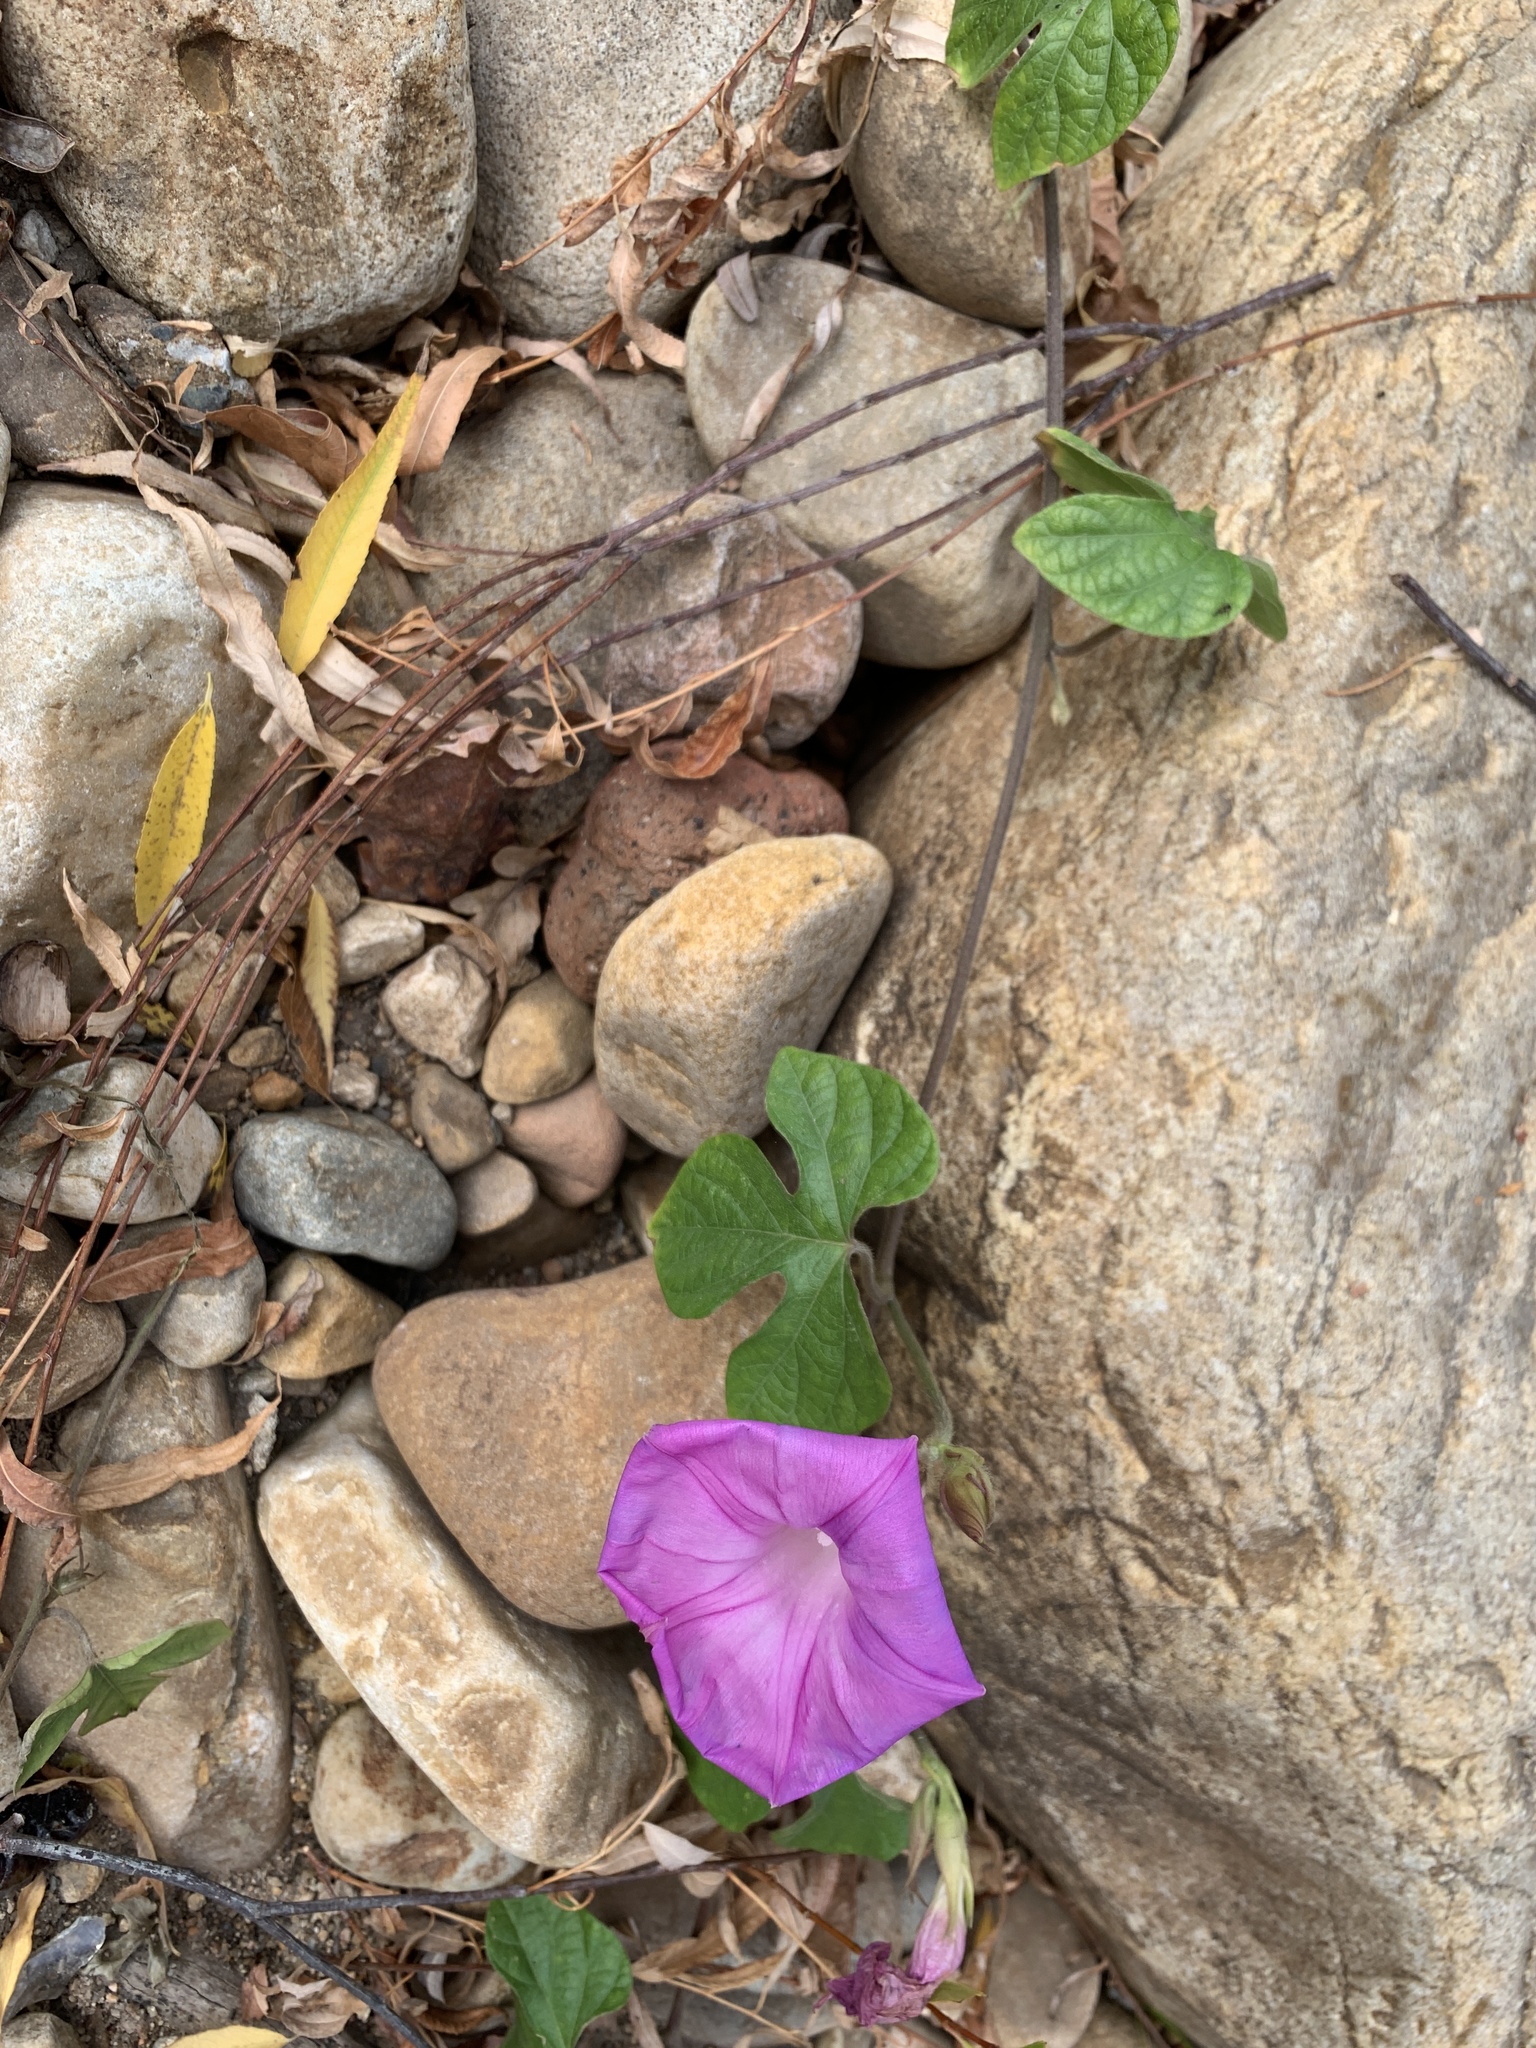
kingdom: Plantae
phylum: Tracheophyta
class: Magnoliopsida
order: Solanales
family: Convolvulaceae
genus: Ipomoea
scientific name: Ipomoea indica
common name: Blue dawnflower
